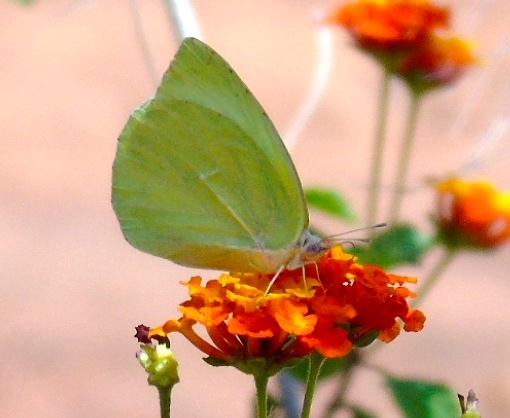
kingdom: Animalia
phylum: Arthropoda
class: Insecta
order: Lepidoptera
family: Pieridae
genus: Kricogonia
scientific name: Kricogonia lyside
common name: Guayacan sulphur,
